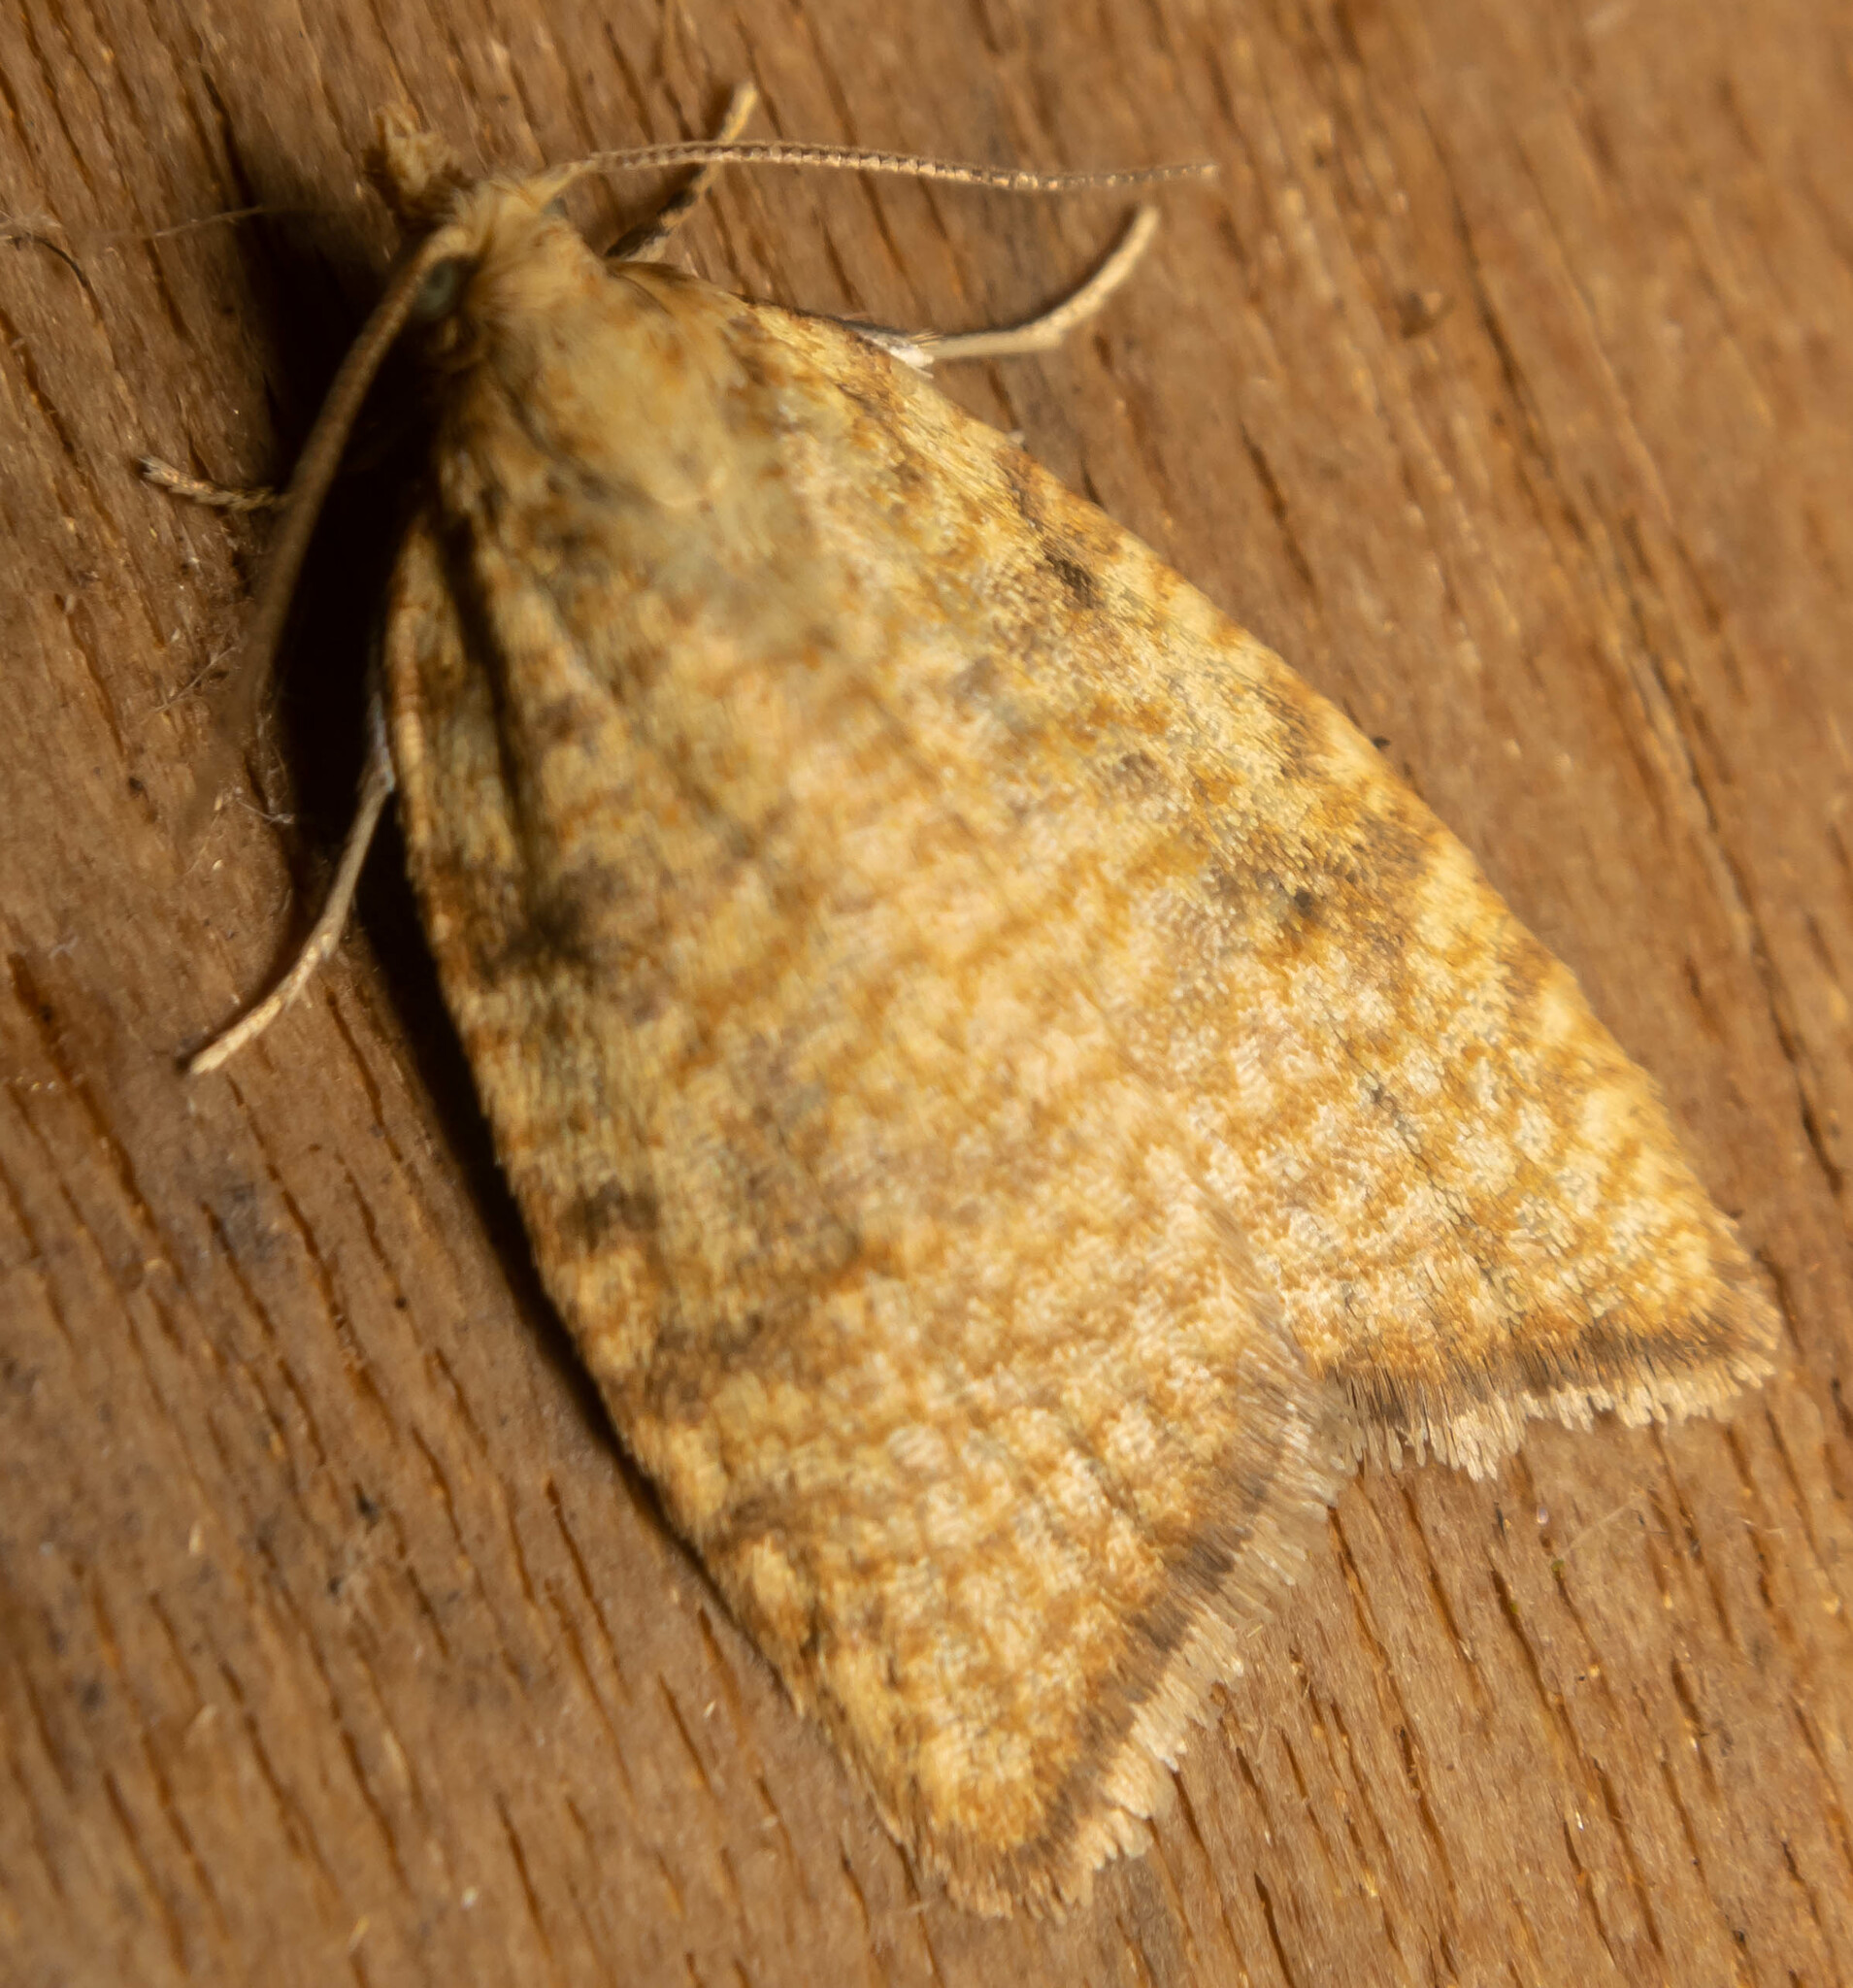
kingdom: Animalia
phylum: Arthropoda
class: Insecta
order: Lepidoptera
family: Tortricidae
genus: Aleimma
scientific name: Aleimma loeflingiana
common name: Yellow oak button
